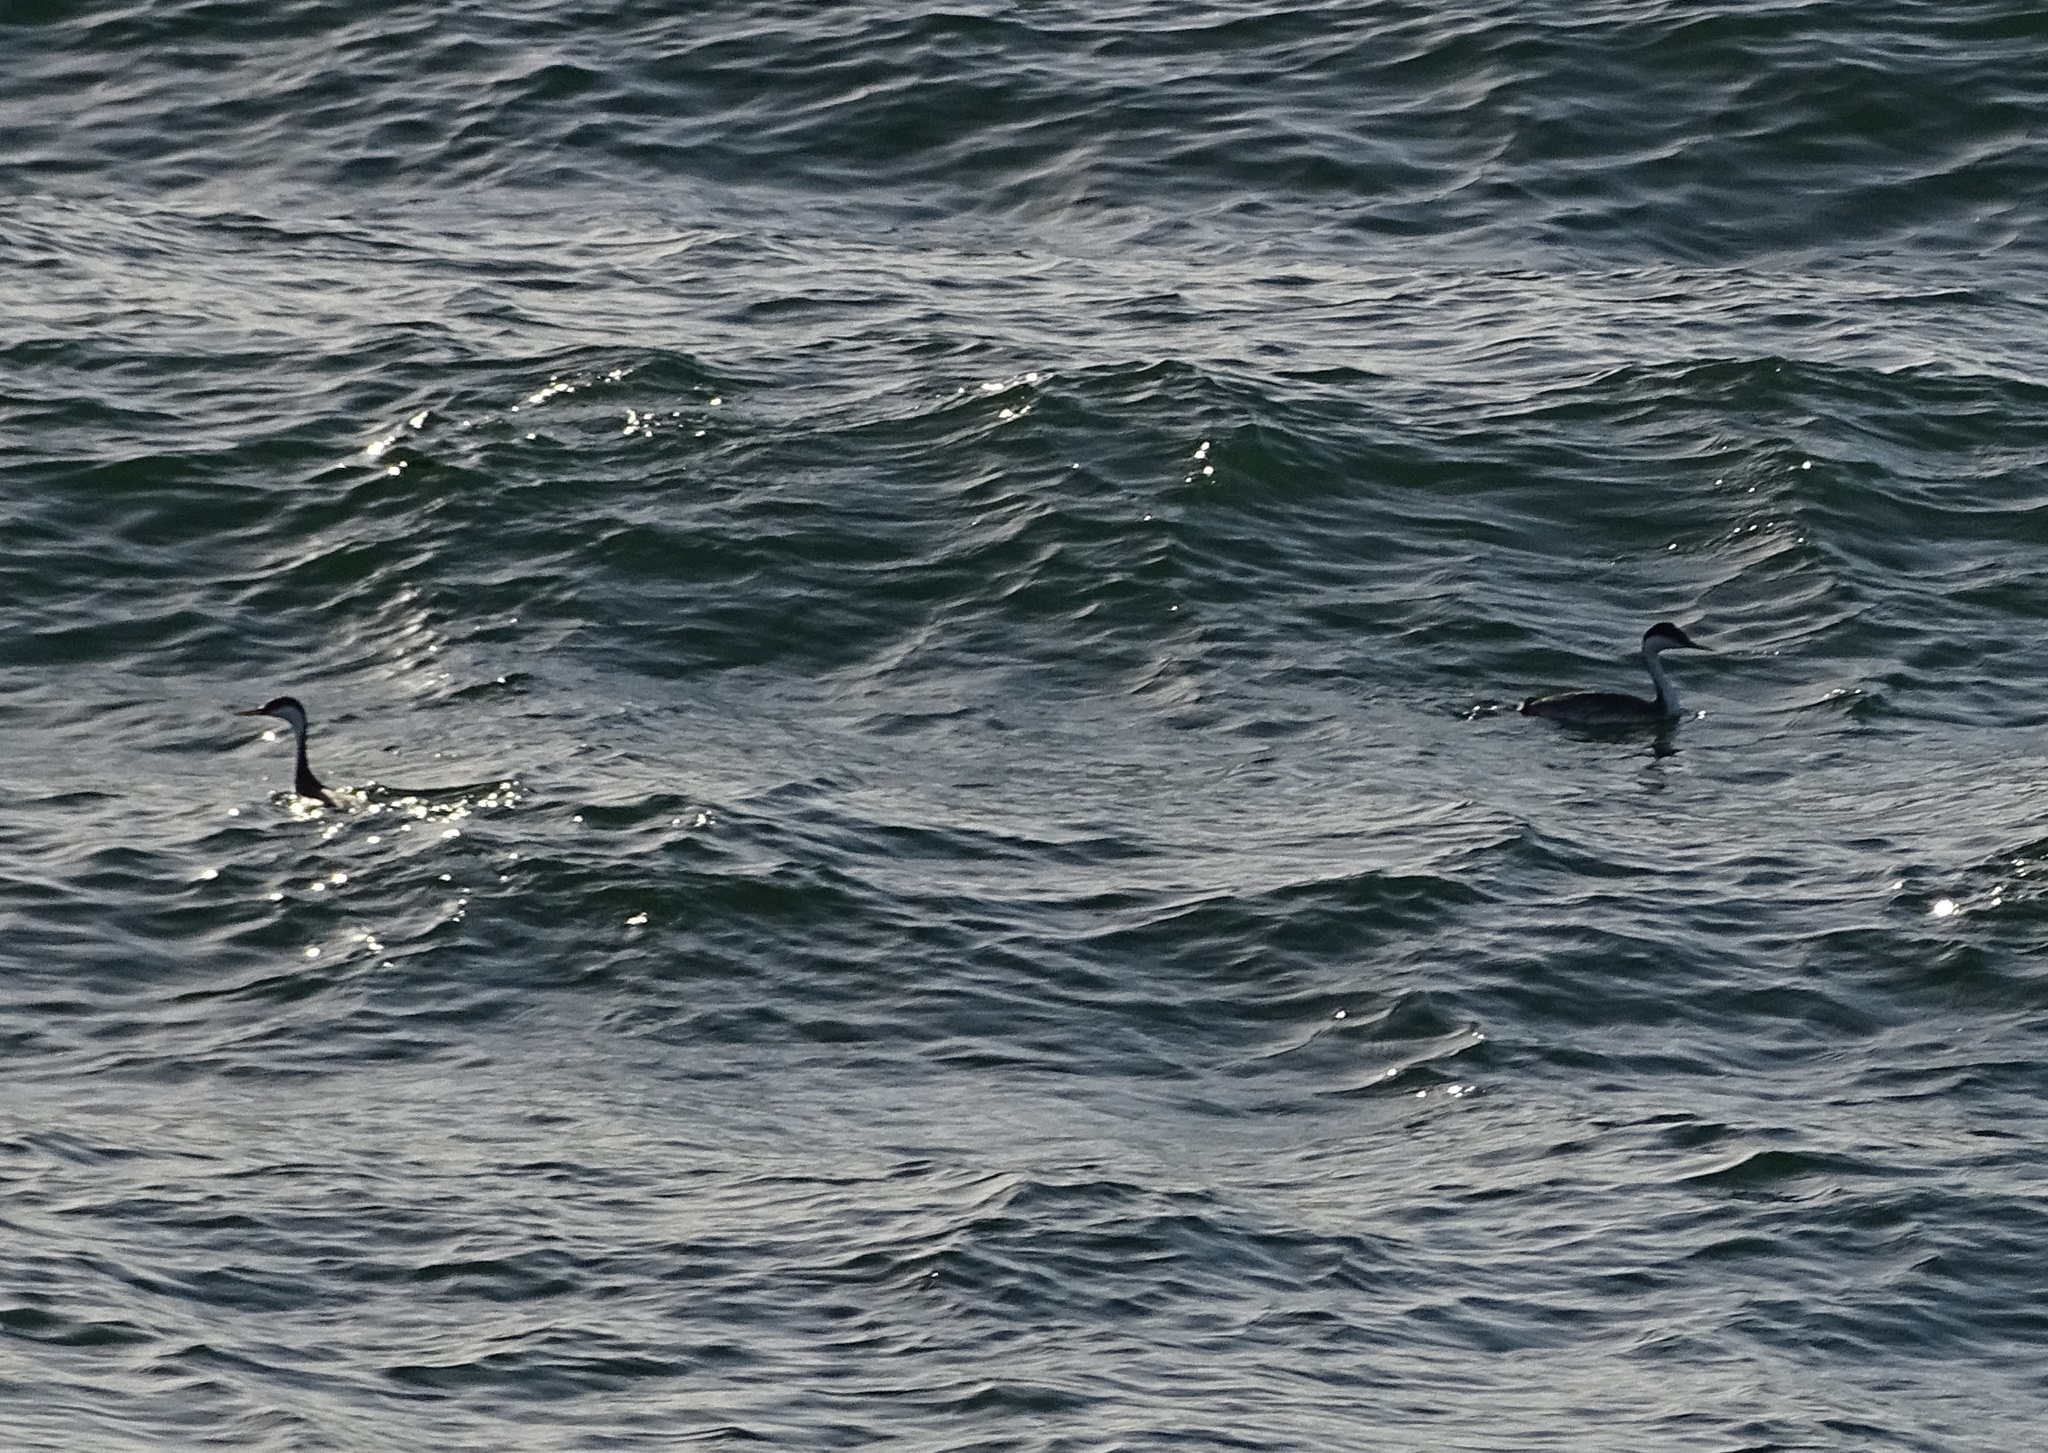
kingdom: Animalia
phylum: Chordata
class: Aves
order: Podicipediformes
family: Podicipedidae
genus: Aechmophorus
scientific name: Aechmophorus occidentalis
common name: Western grebe
